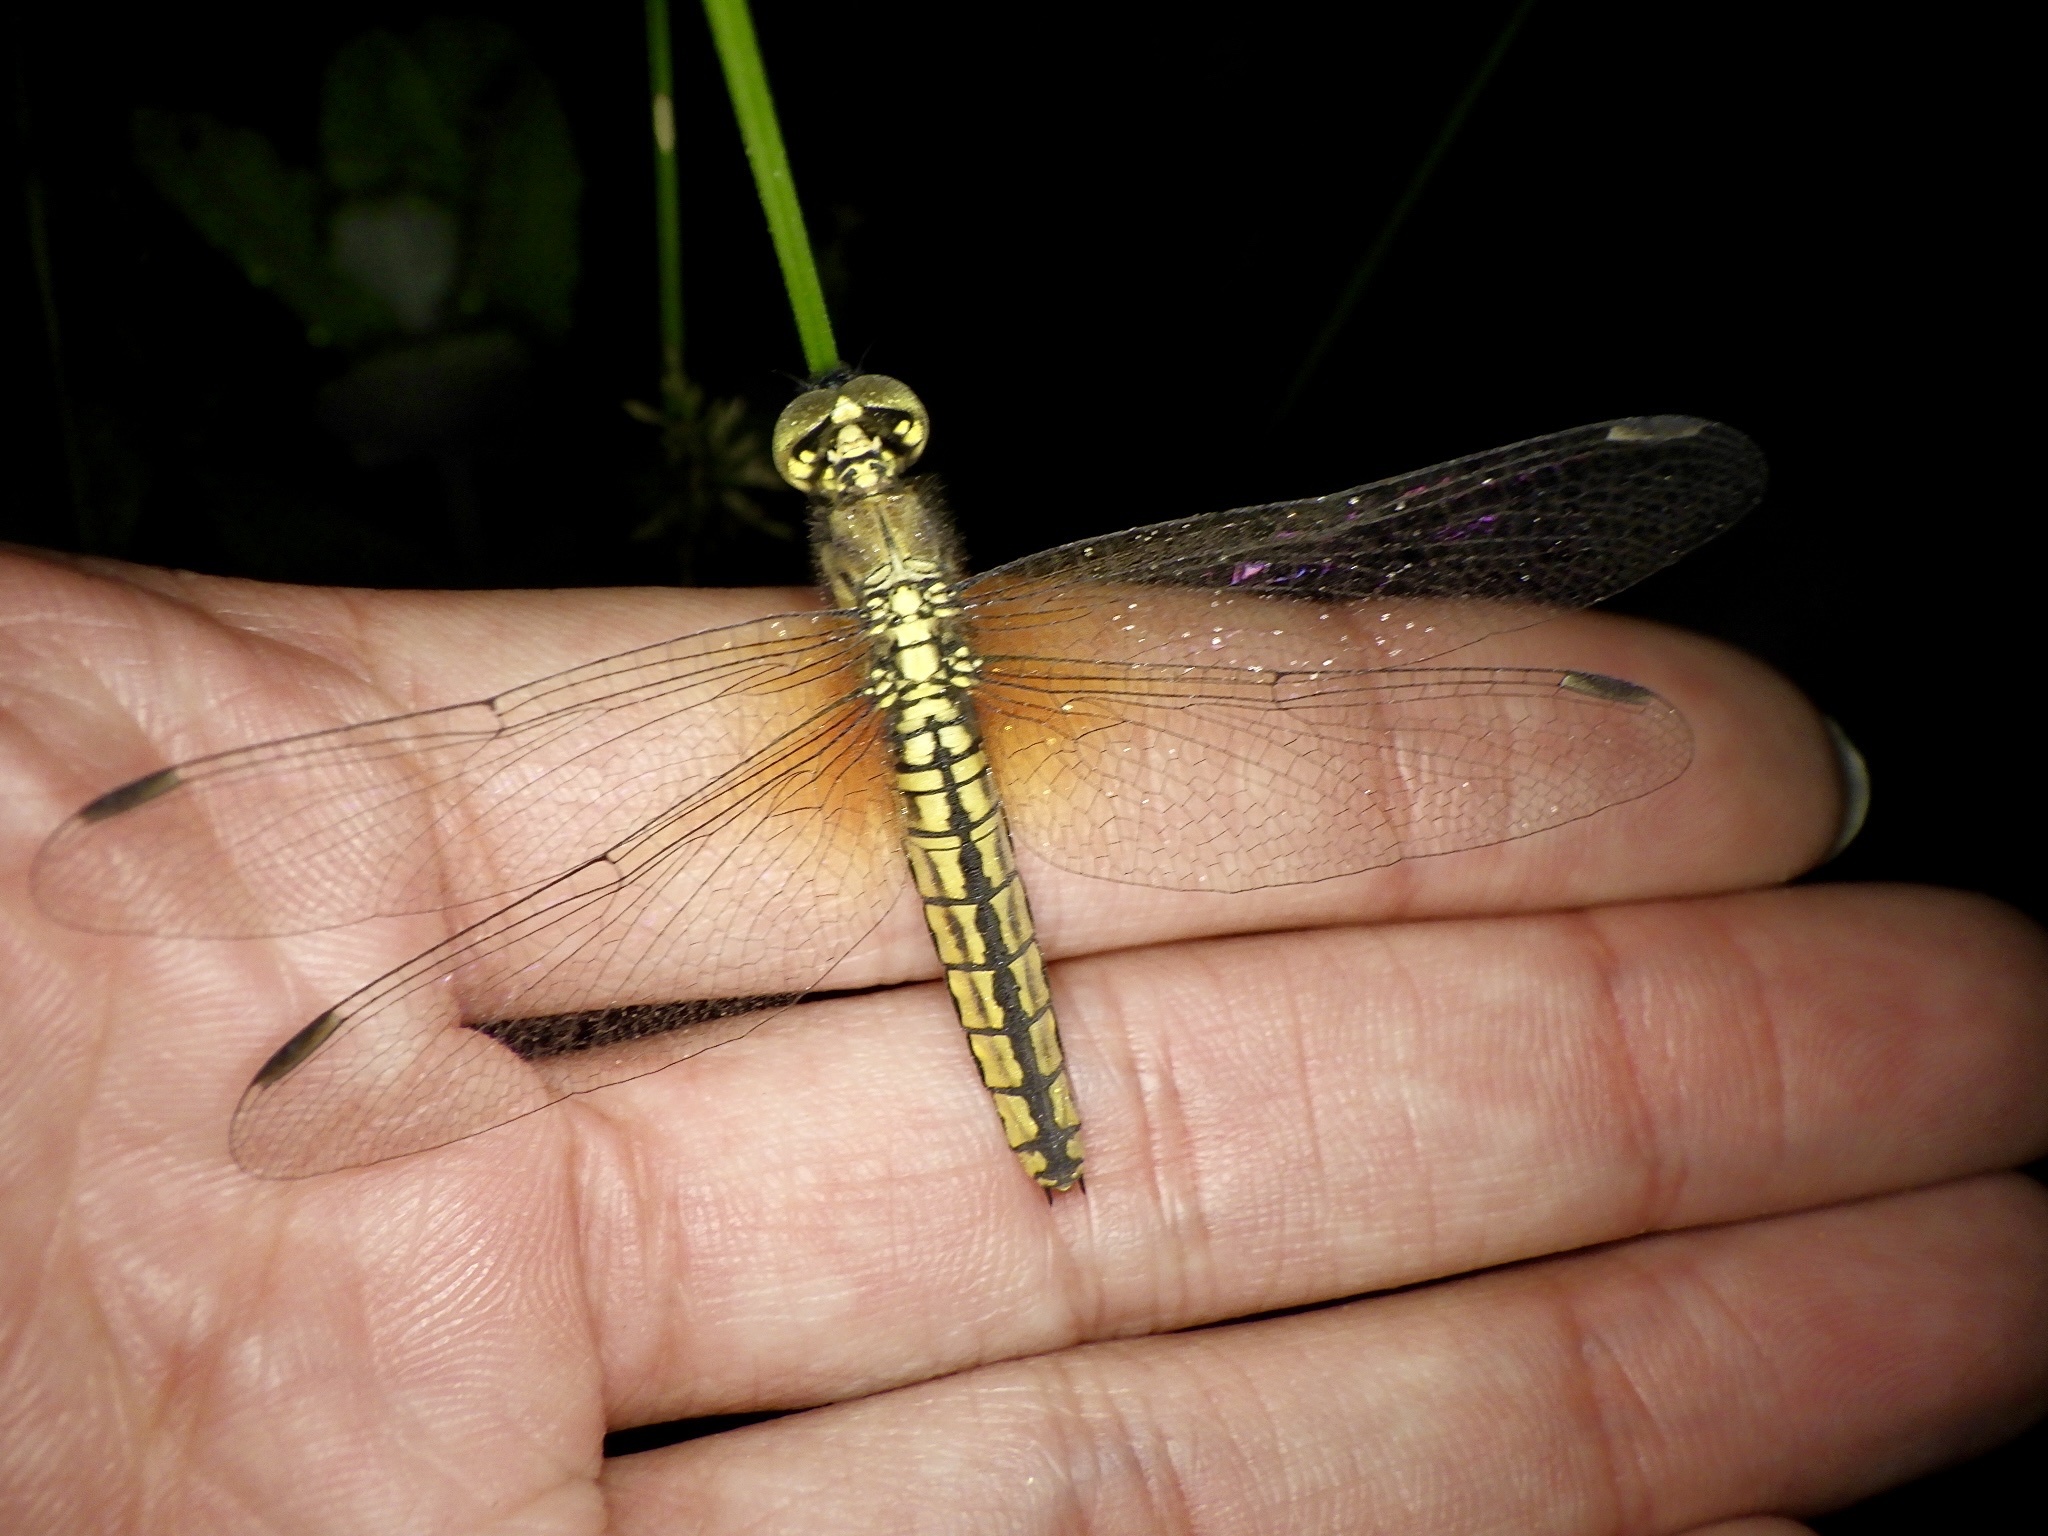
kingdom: Animalia
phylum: Arthropoda
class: Insecta
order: Odonata
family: Libellulidae
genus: Lyriothemis
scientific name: Lyriothemis pachygastra
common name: Wide-bellied skimmer
